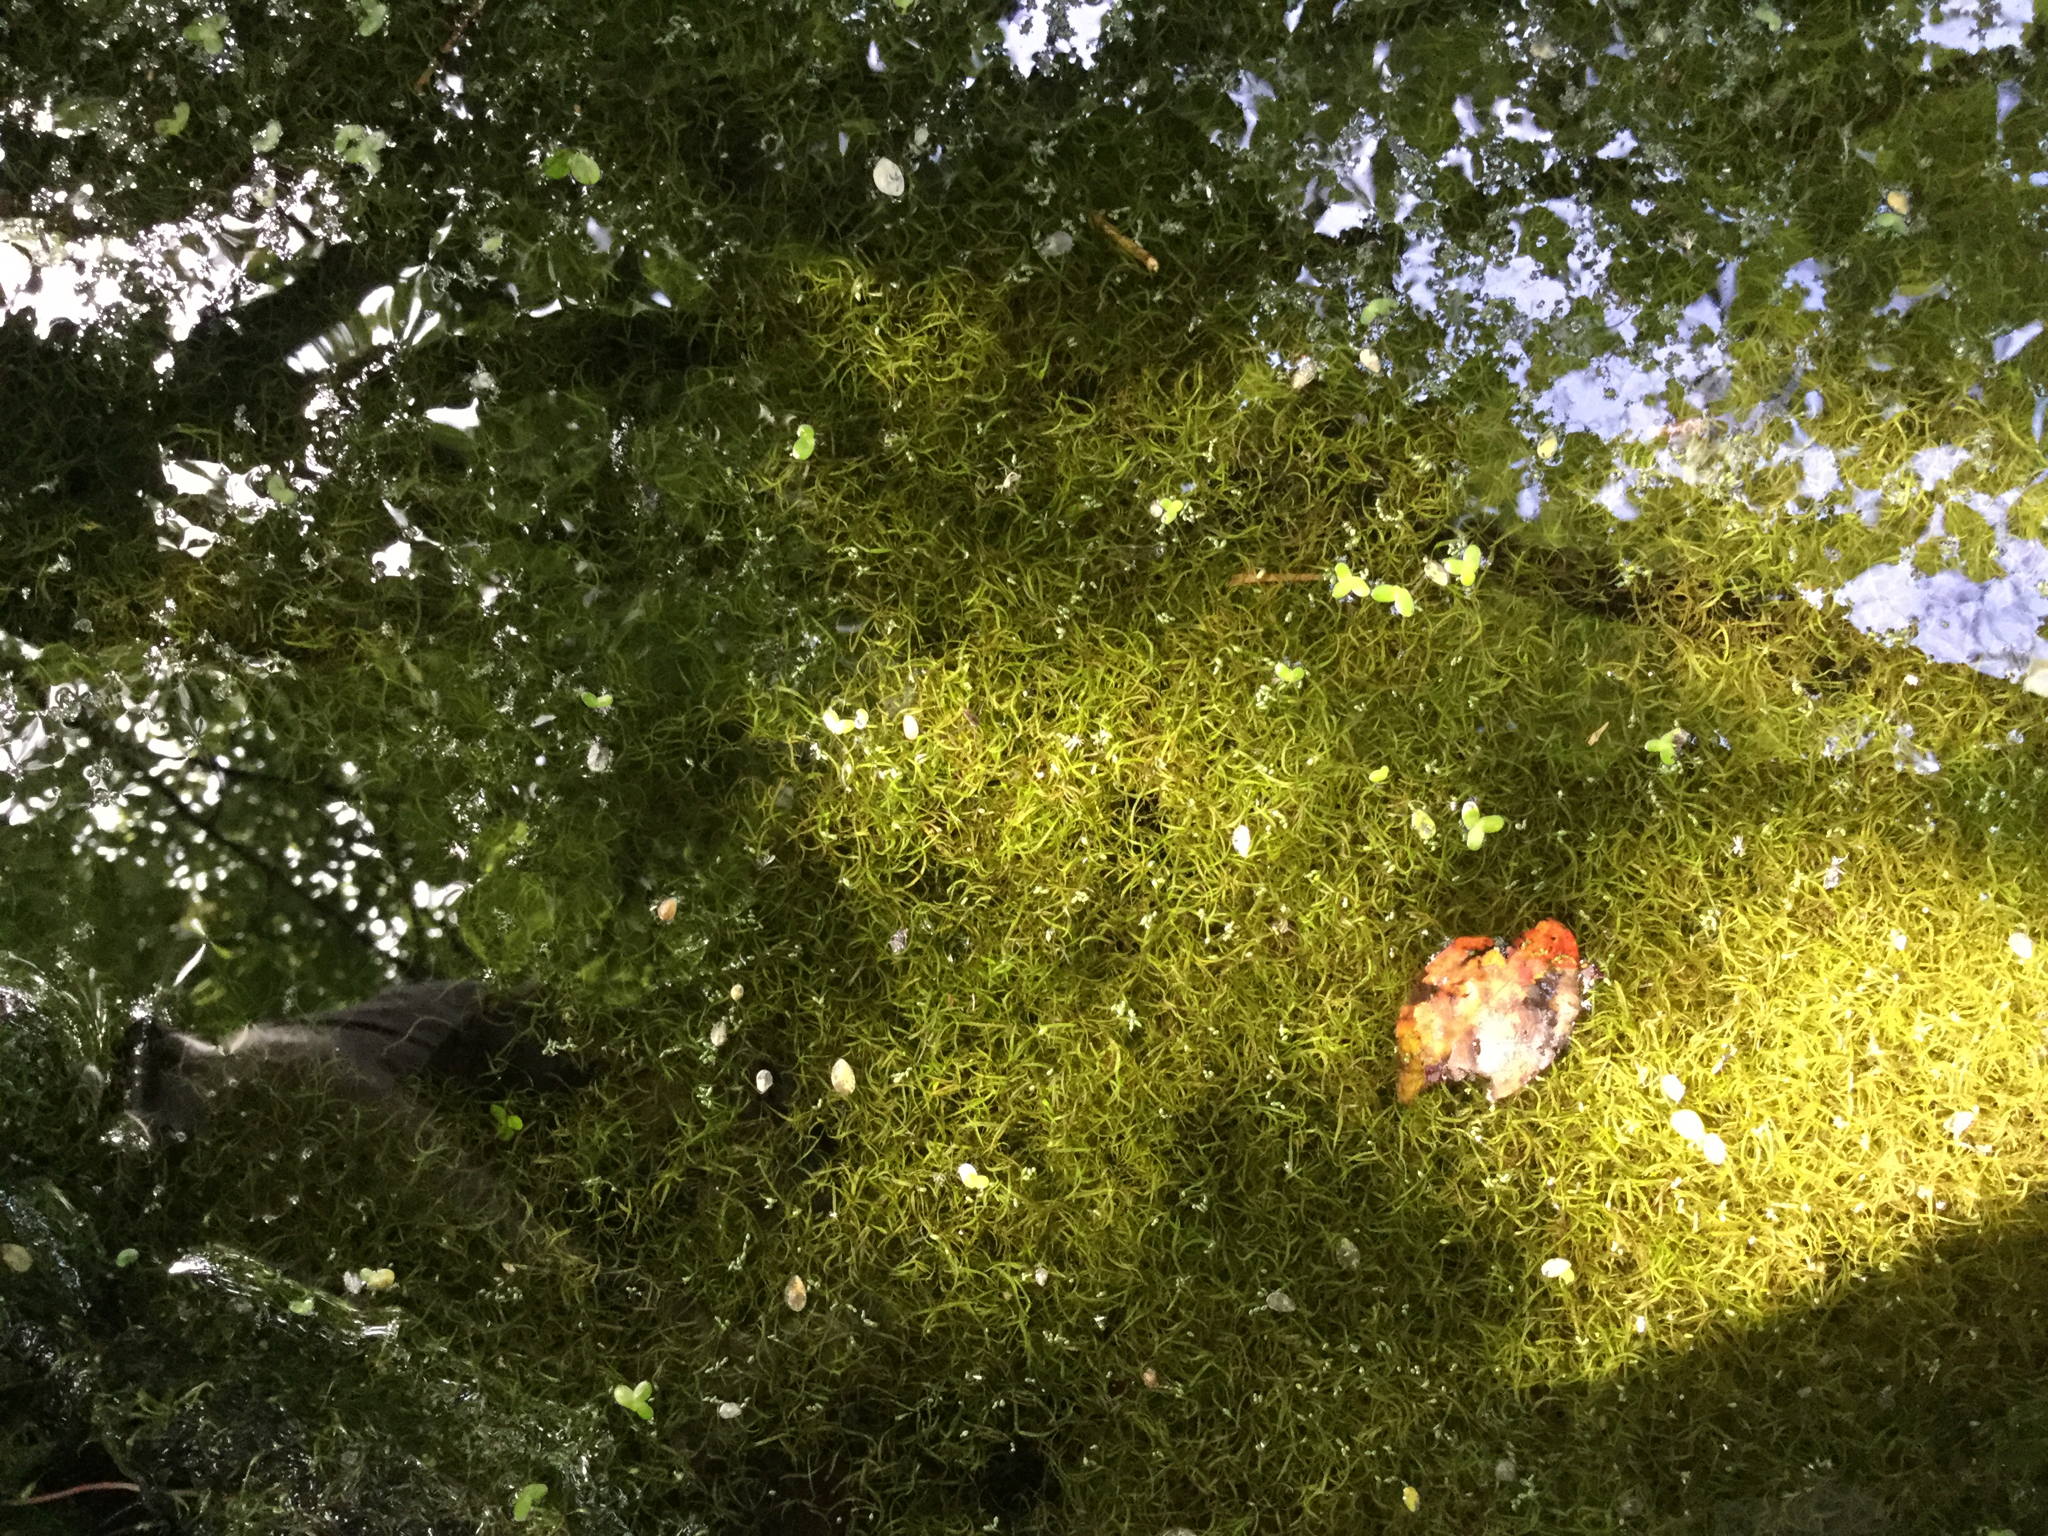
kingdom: Plantae
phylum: Tracheophyta
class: Liliopsida
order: Alismatales
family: Araceae
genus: Wolffiella
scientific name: Wolffiella gladiata
